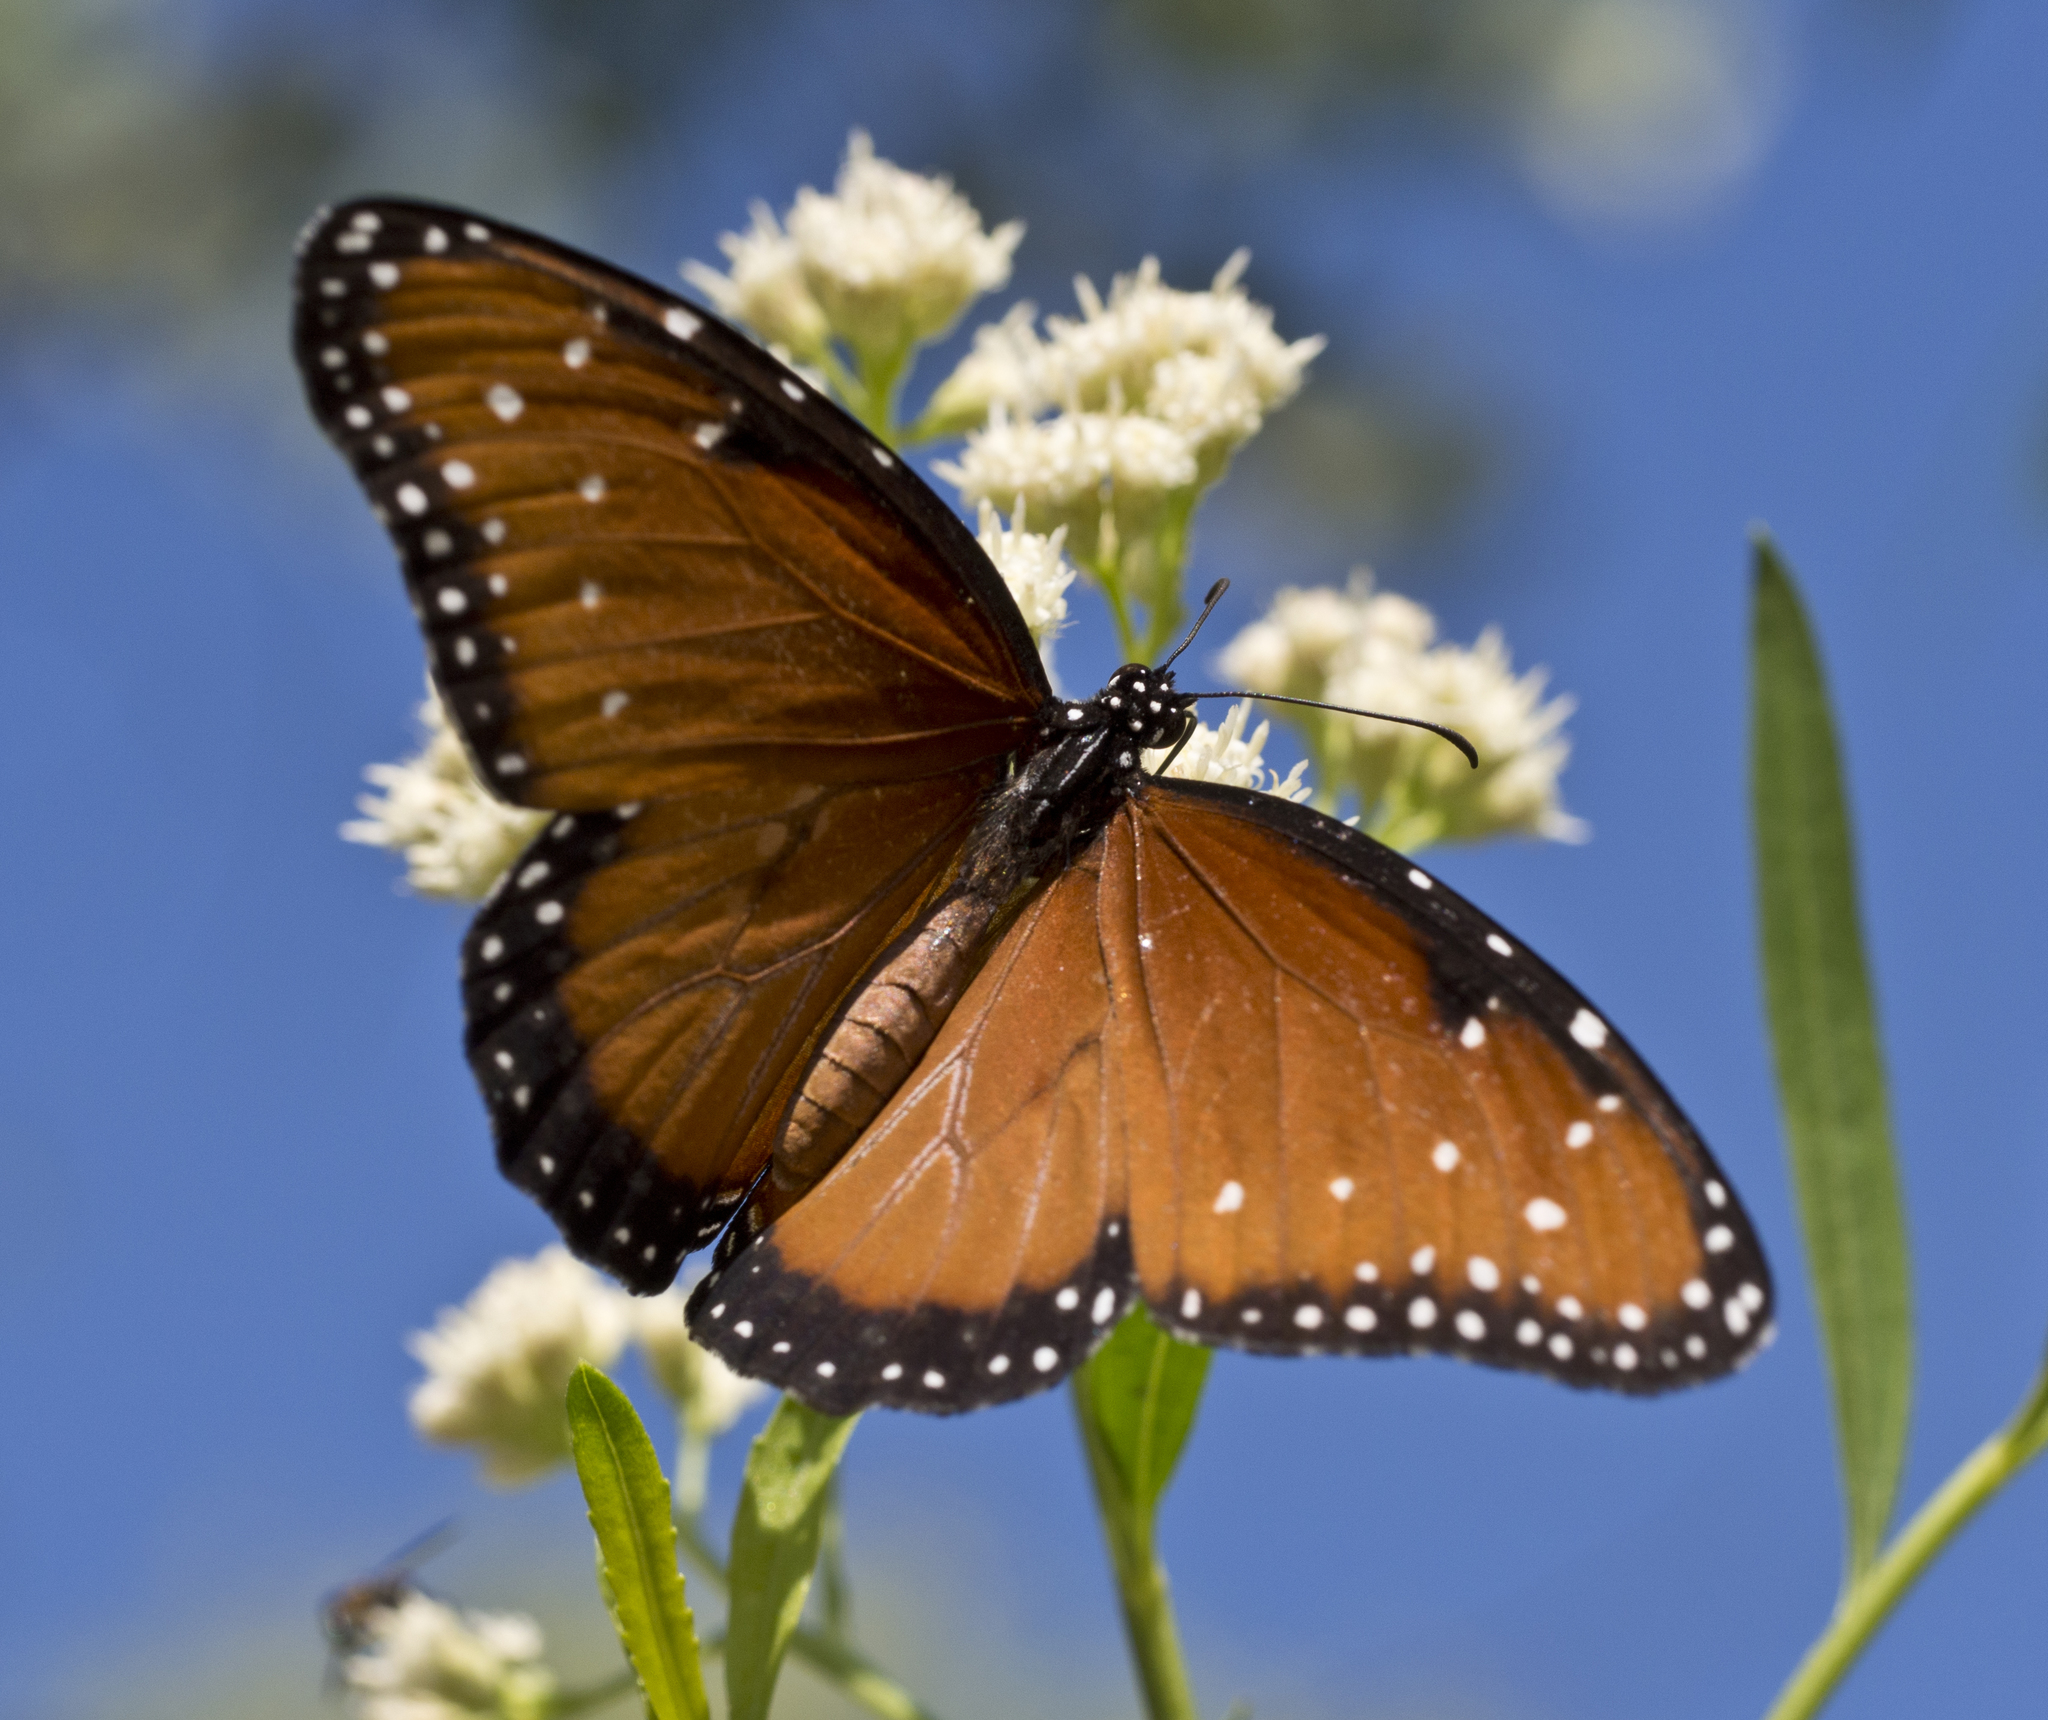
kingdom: Animalia
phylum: Arthropoda
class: Insecta
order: Lepidoptera
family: Nymphalidae
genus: Danaus
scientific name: Danaus gilippus
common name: Queen
